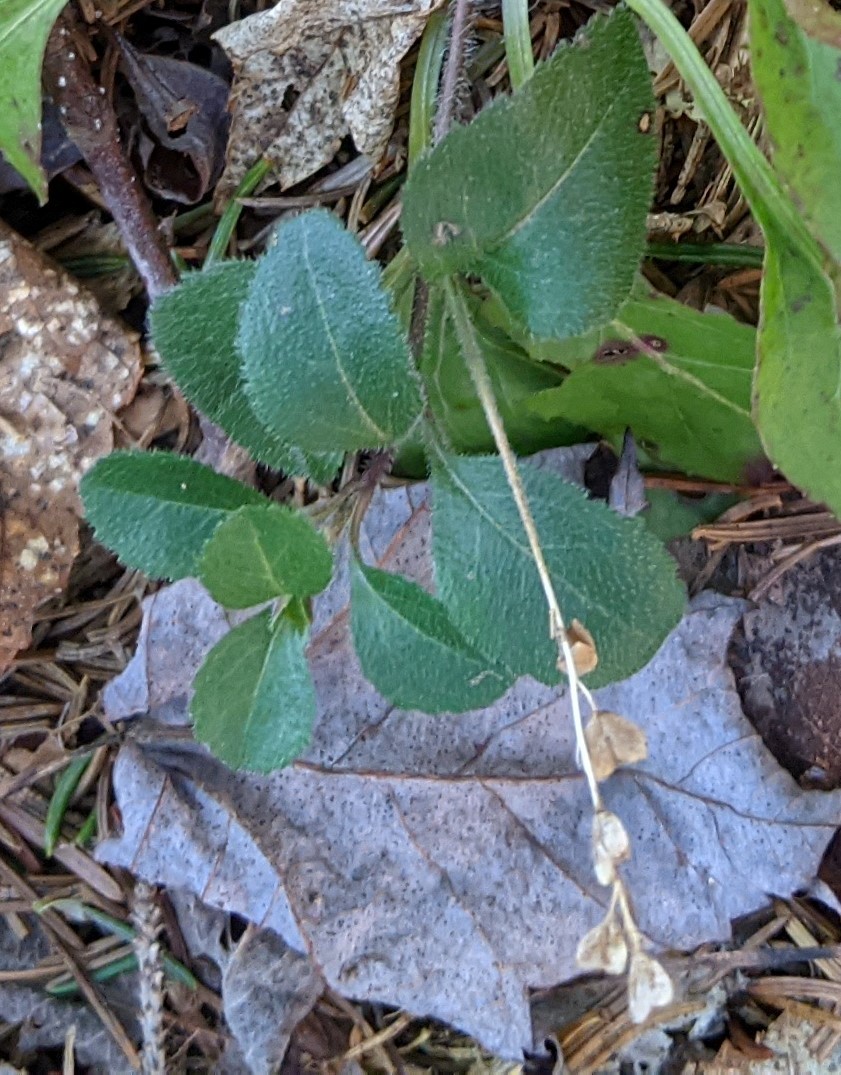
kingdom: Plantae
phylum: Tracheophyta
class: Magnoliopsida
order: Lamiales
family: Plantaginaceae
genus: Veronica
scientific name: Veronica officinalis
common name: Common speedwell
